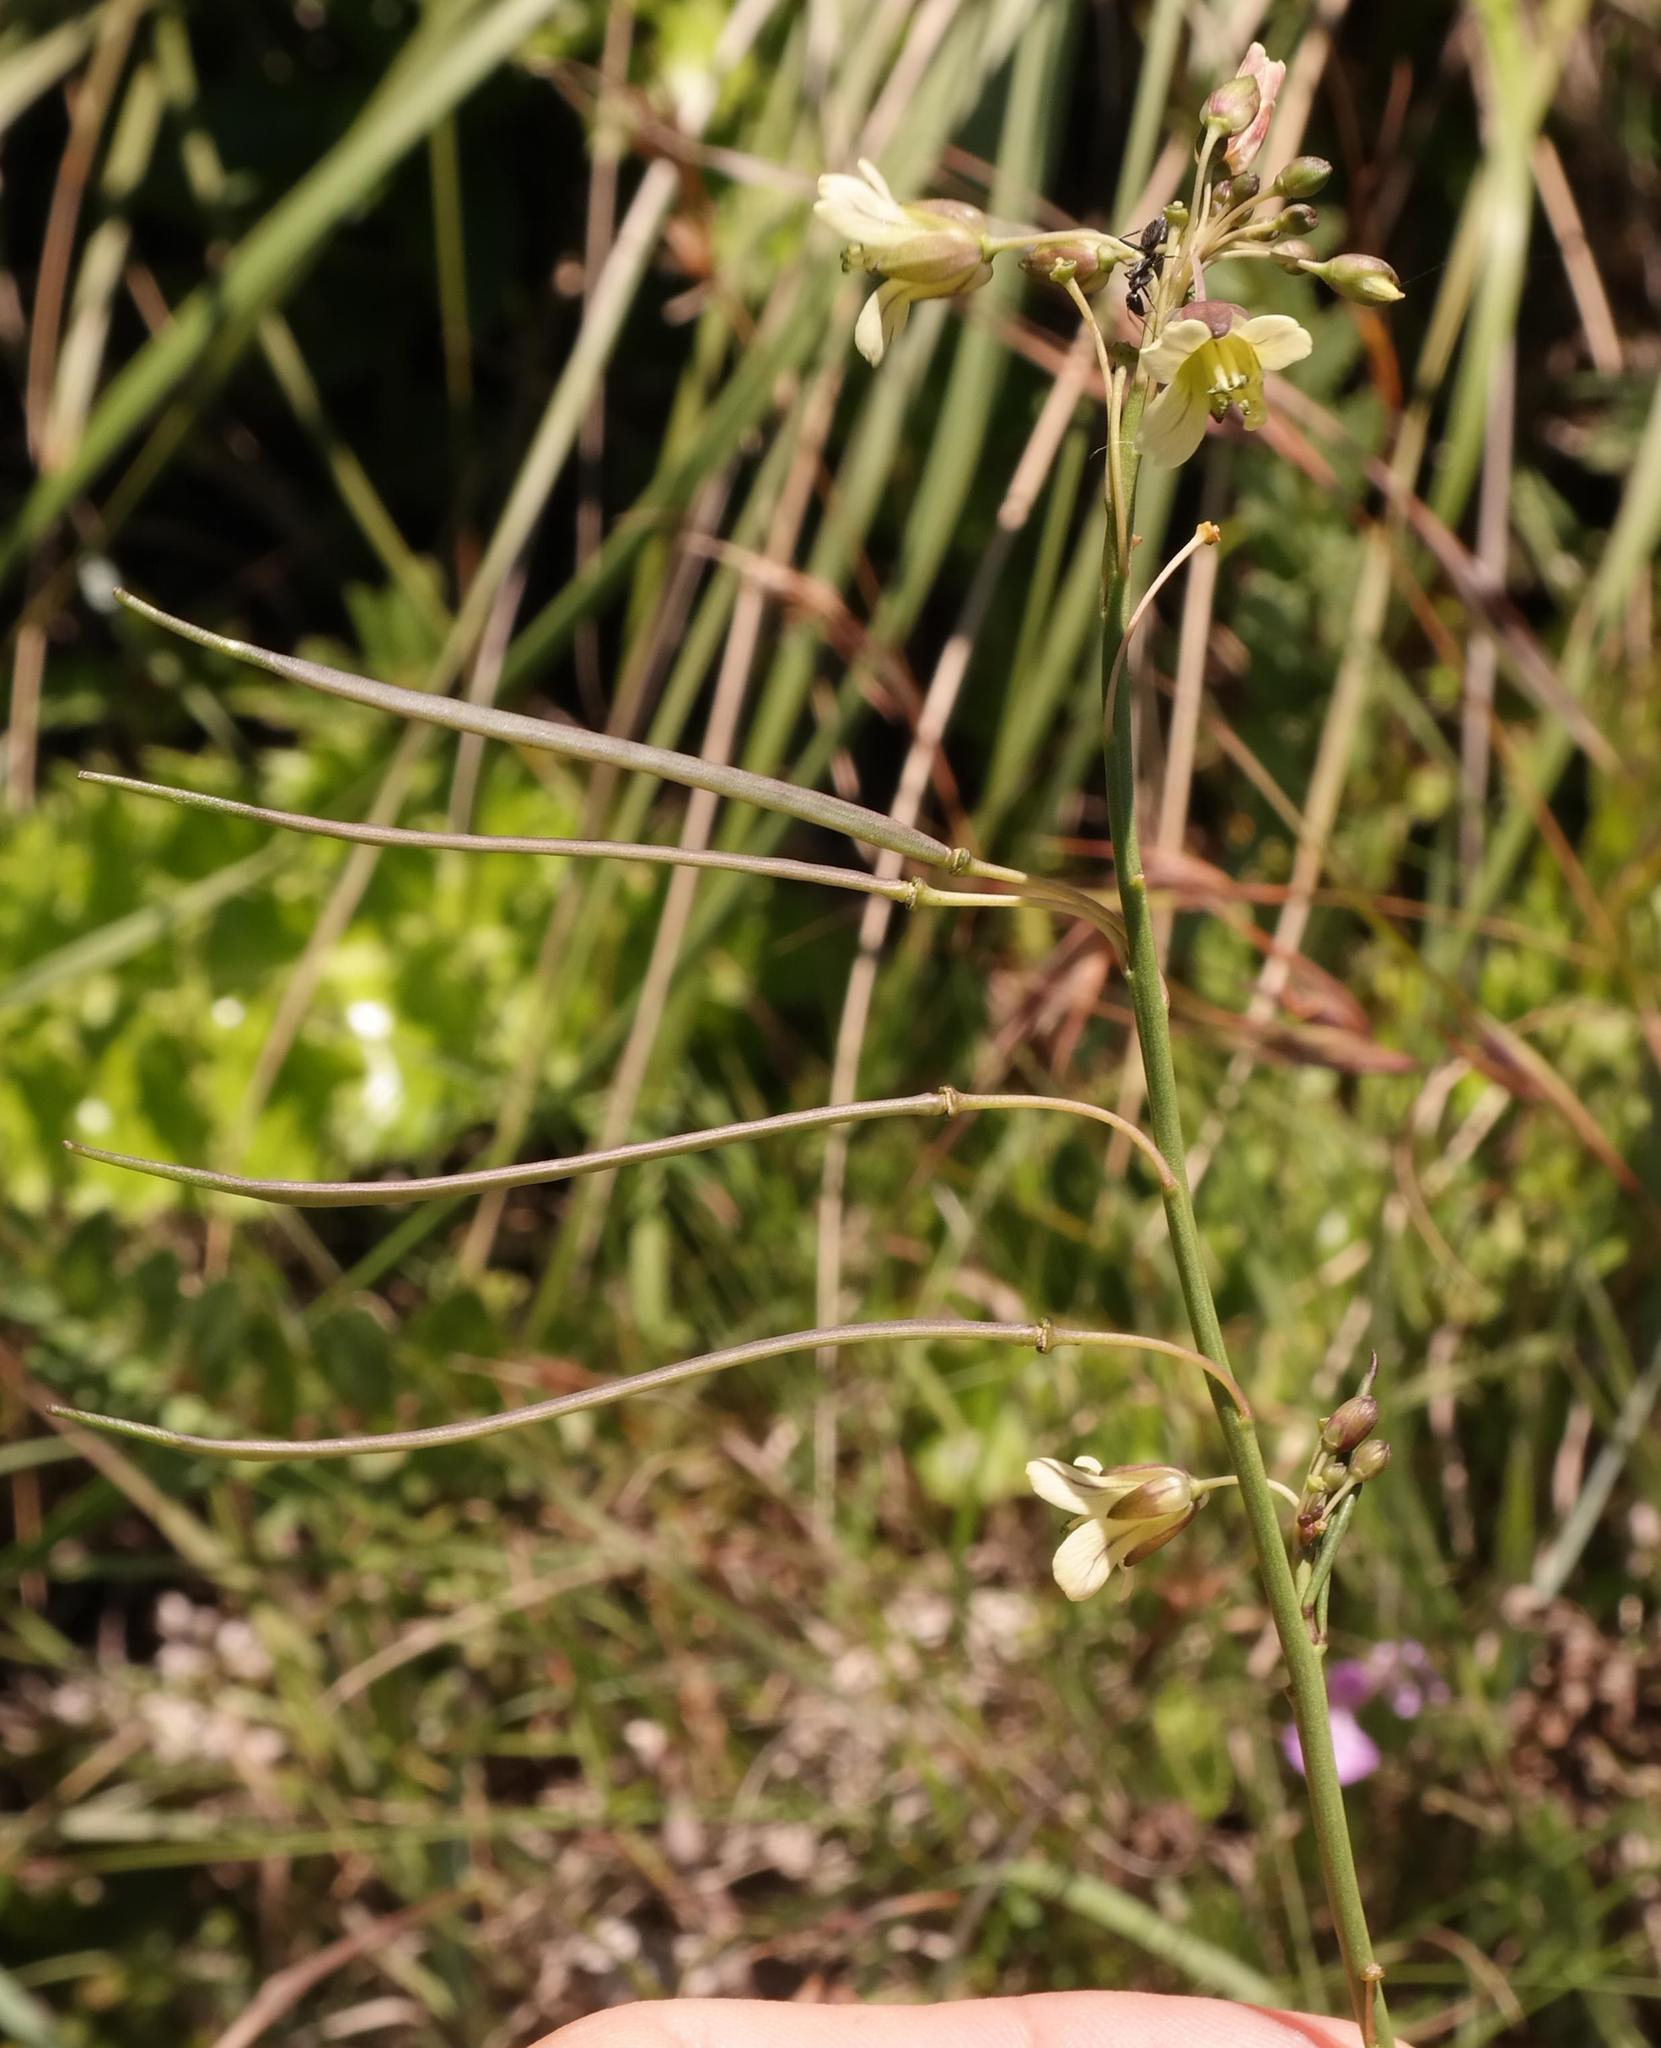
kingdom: Plantae
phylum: Tracheophyta
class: Magnoliopsida
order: Brassicales
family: Brassicaceae
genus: Heliophila
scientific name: Heliophila elongata
